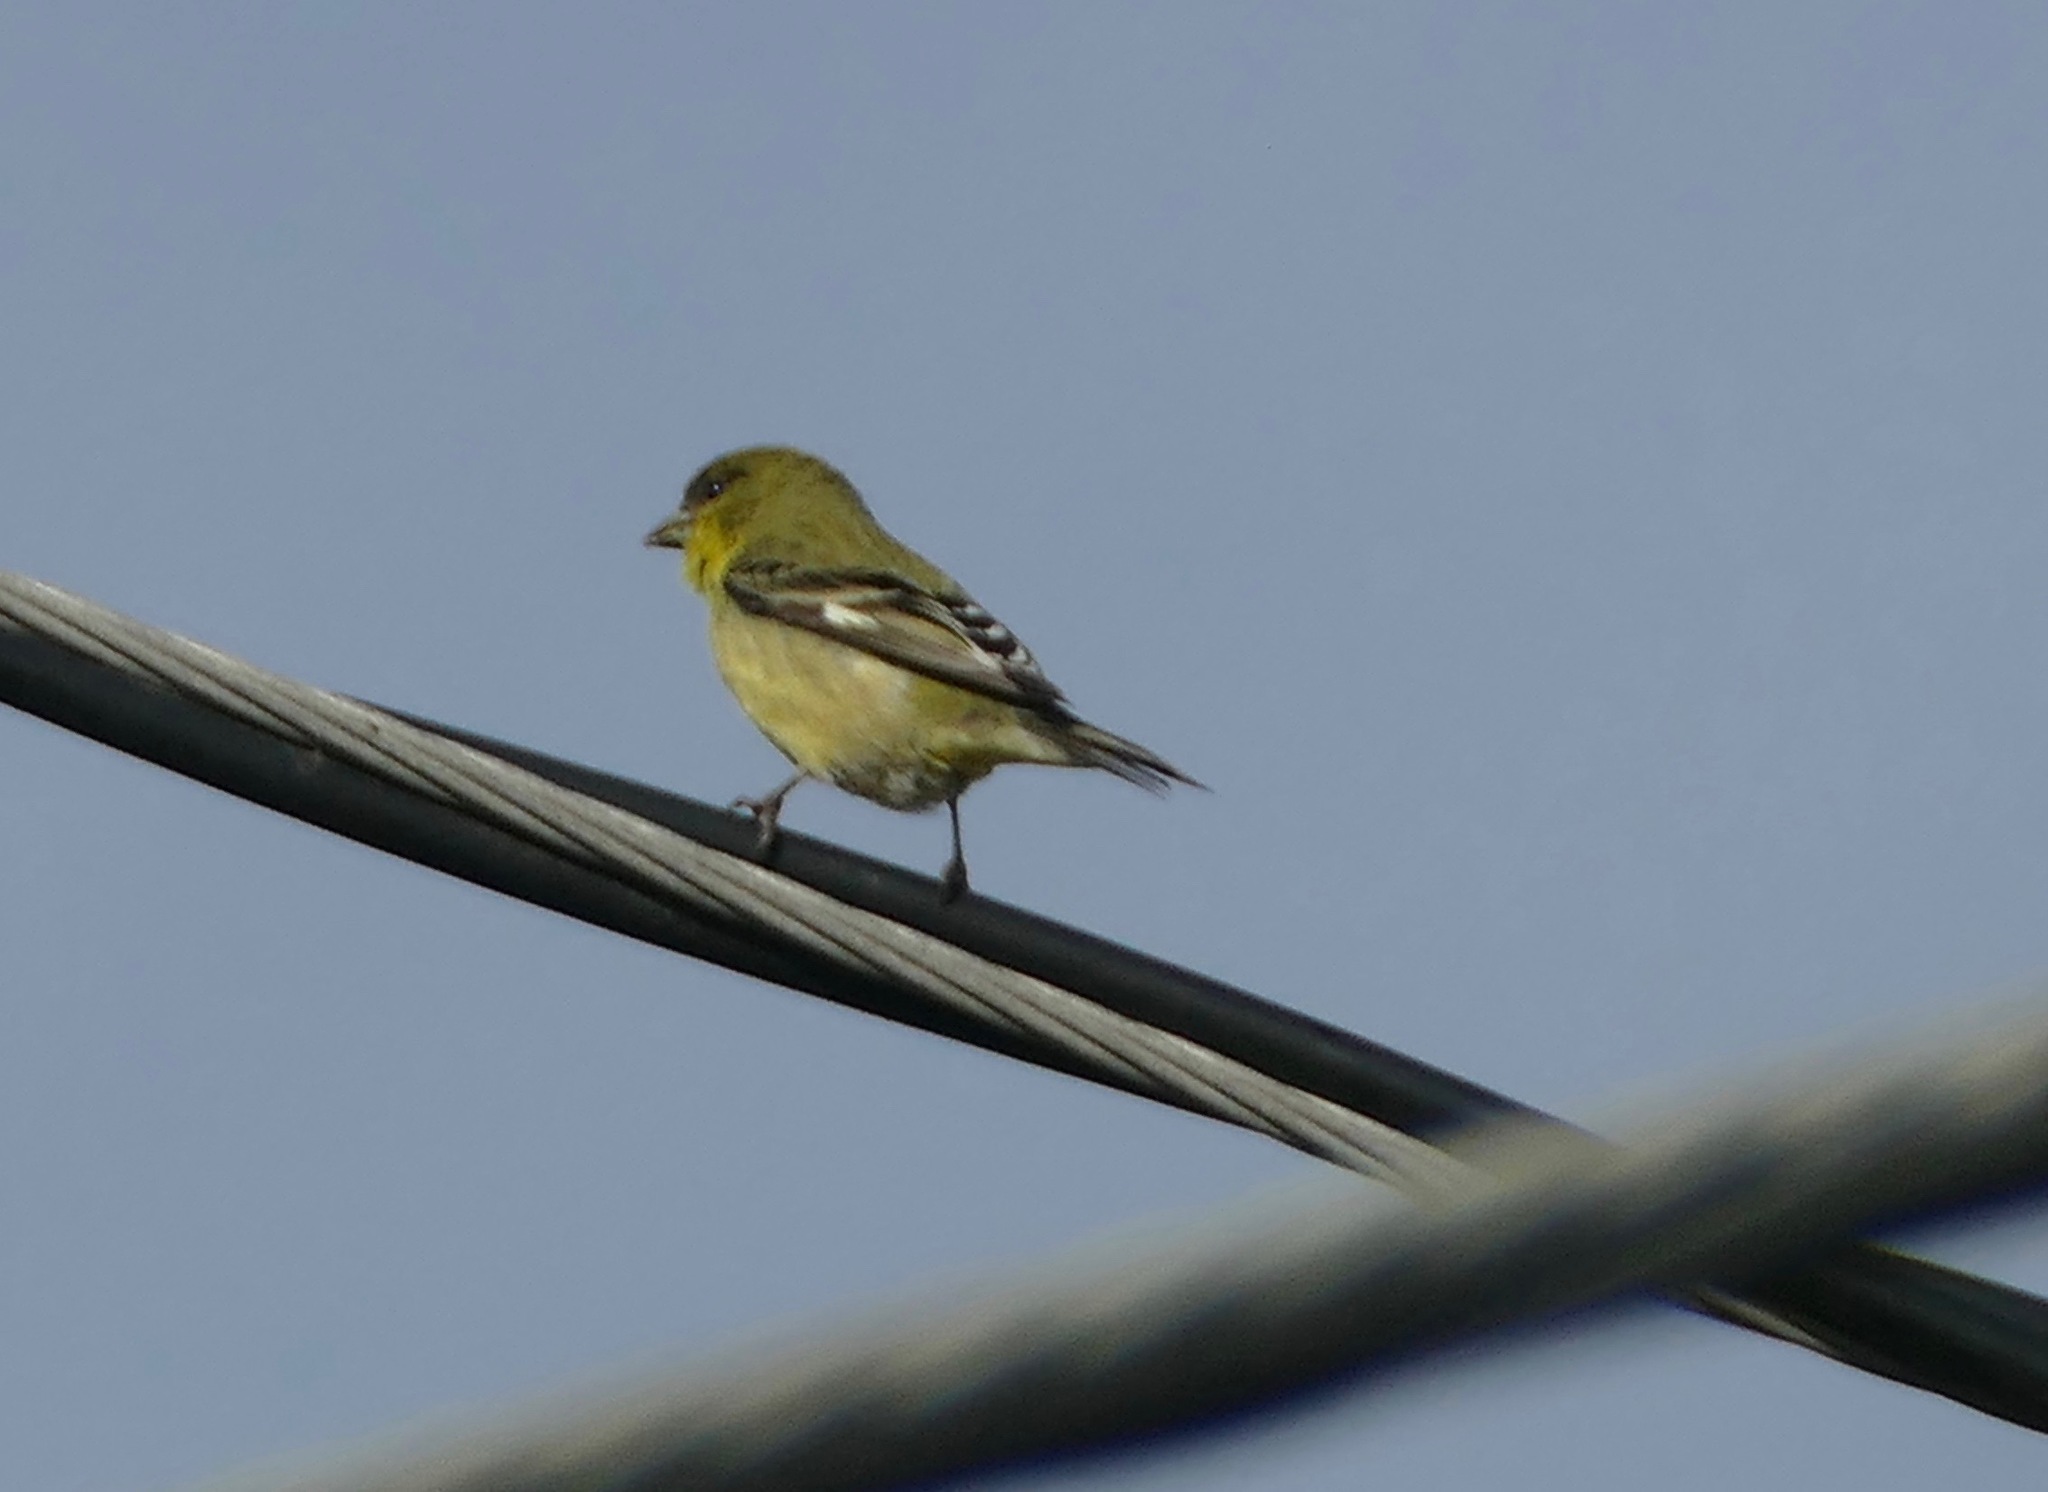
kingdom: Animalia
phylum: Chordata
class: Aves
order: Passeriformes
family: Fringillidae
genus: Spinus
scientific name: Spinus psaltria
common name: Lesser goldfinch
